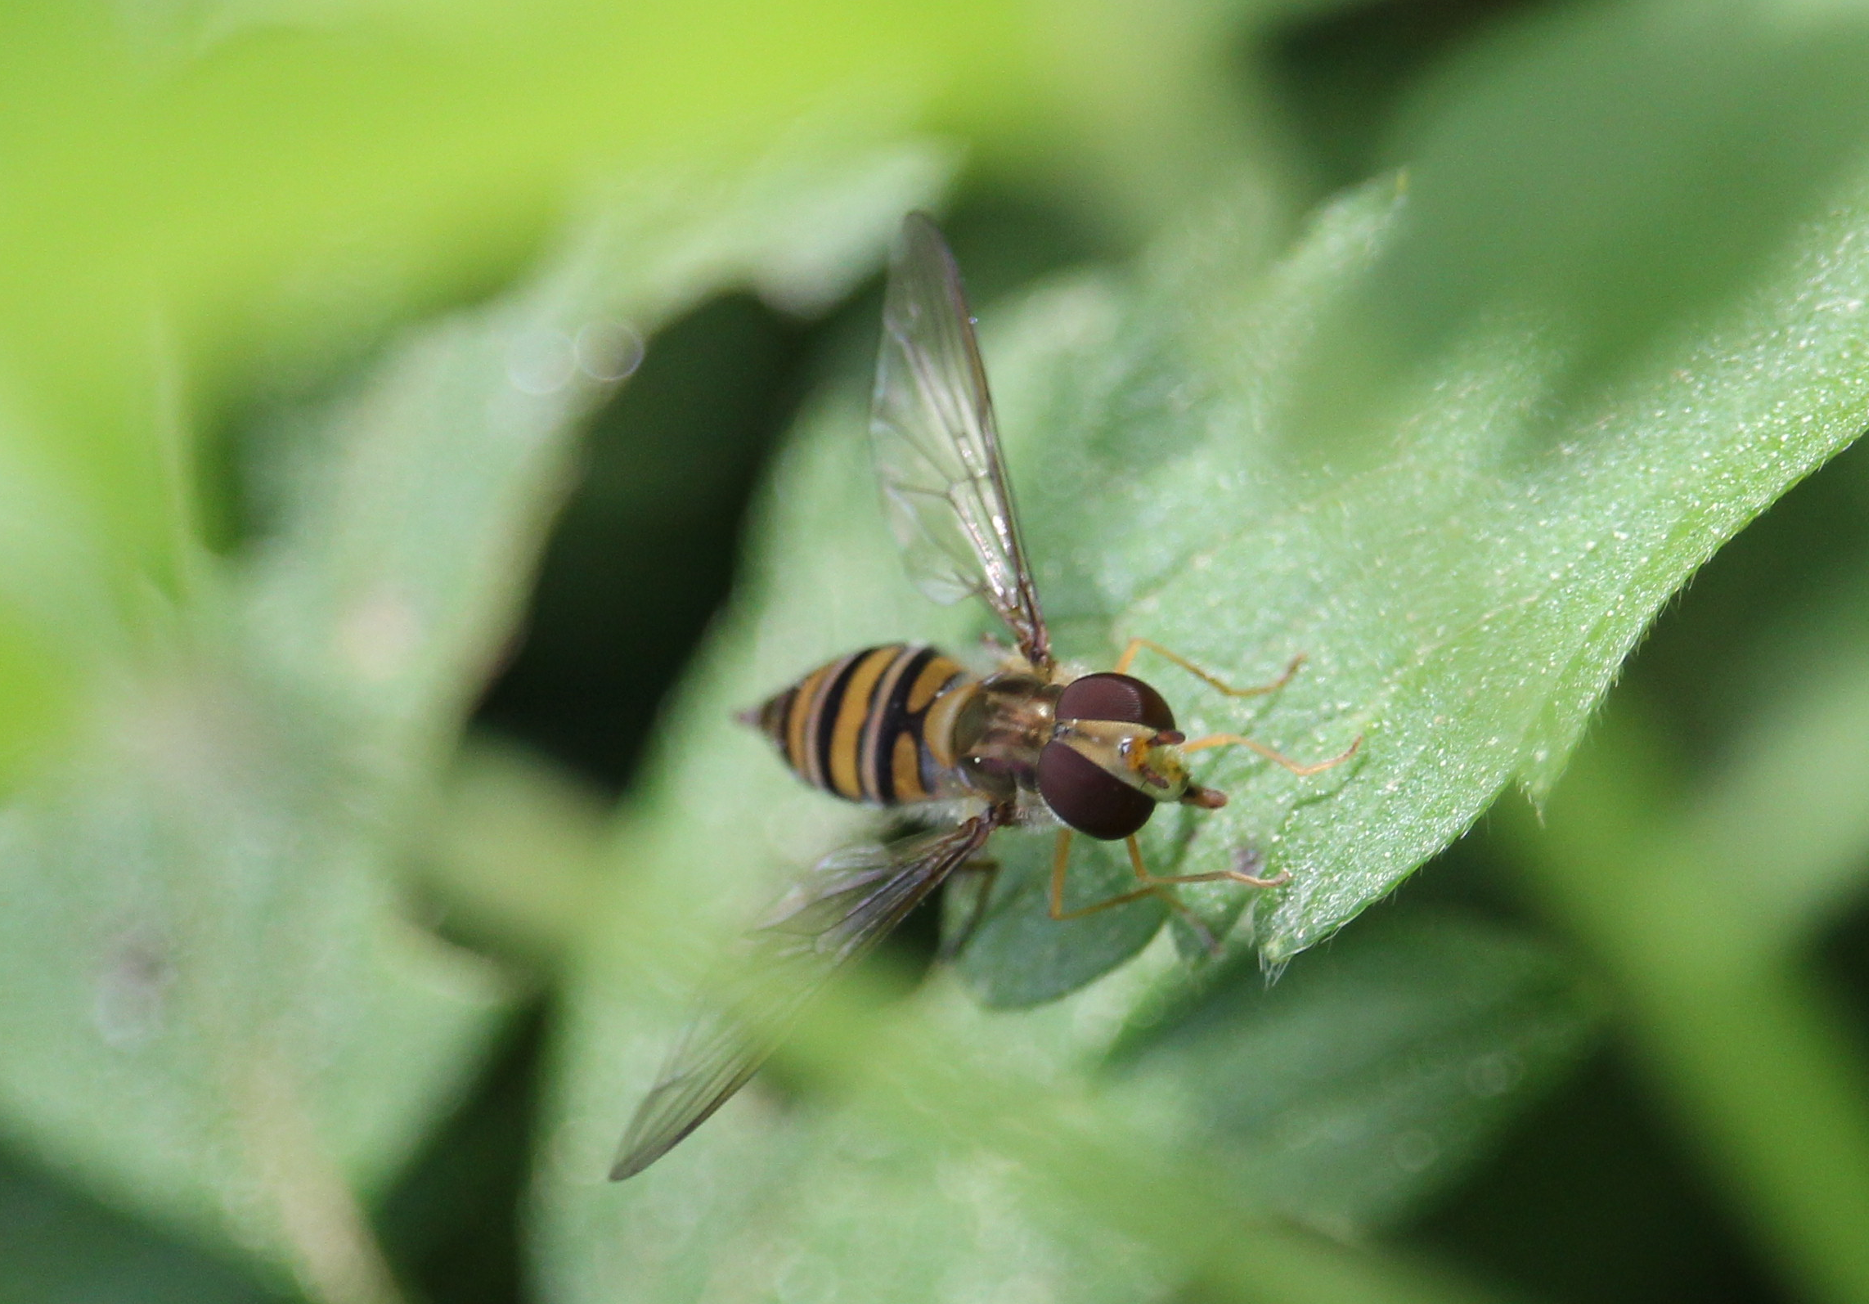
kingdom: Animalia
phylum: Arthropoda
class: Insecta
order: Diptera
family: Syrphidae
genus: Episyrphus
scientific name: Episyrphus balteatus
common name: Marmalade hoverfly
